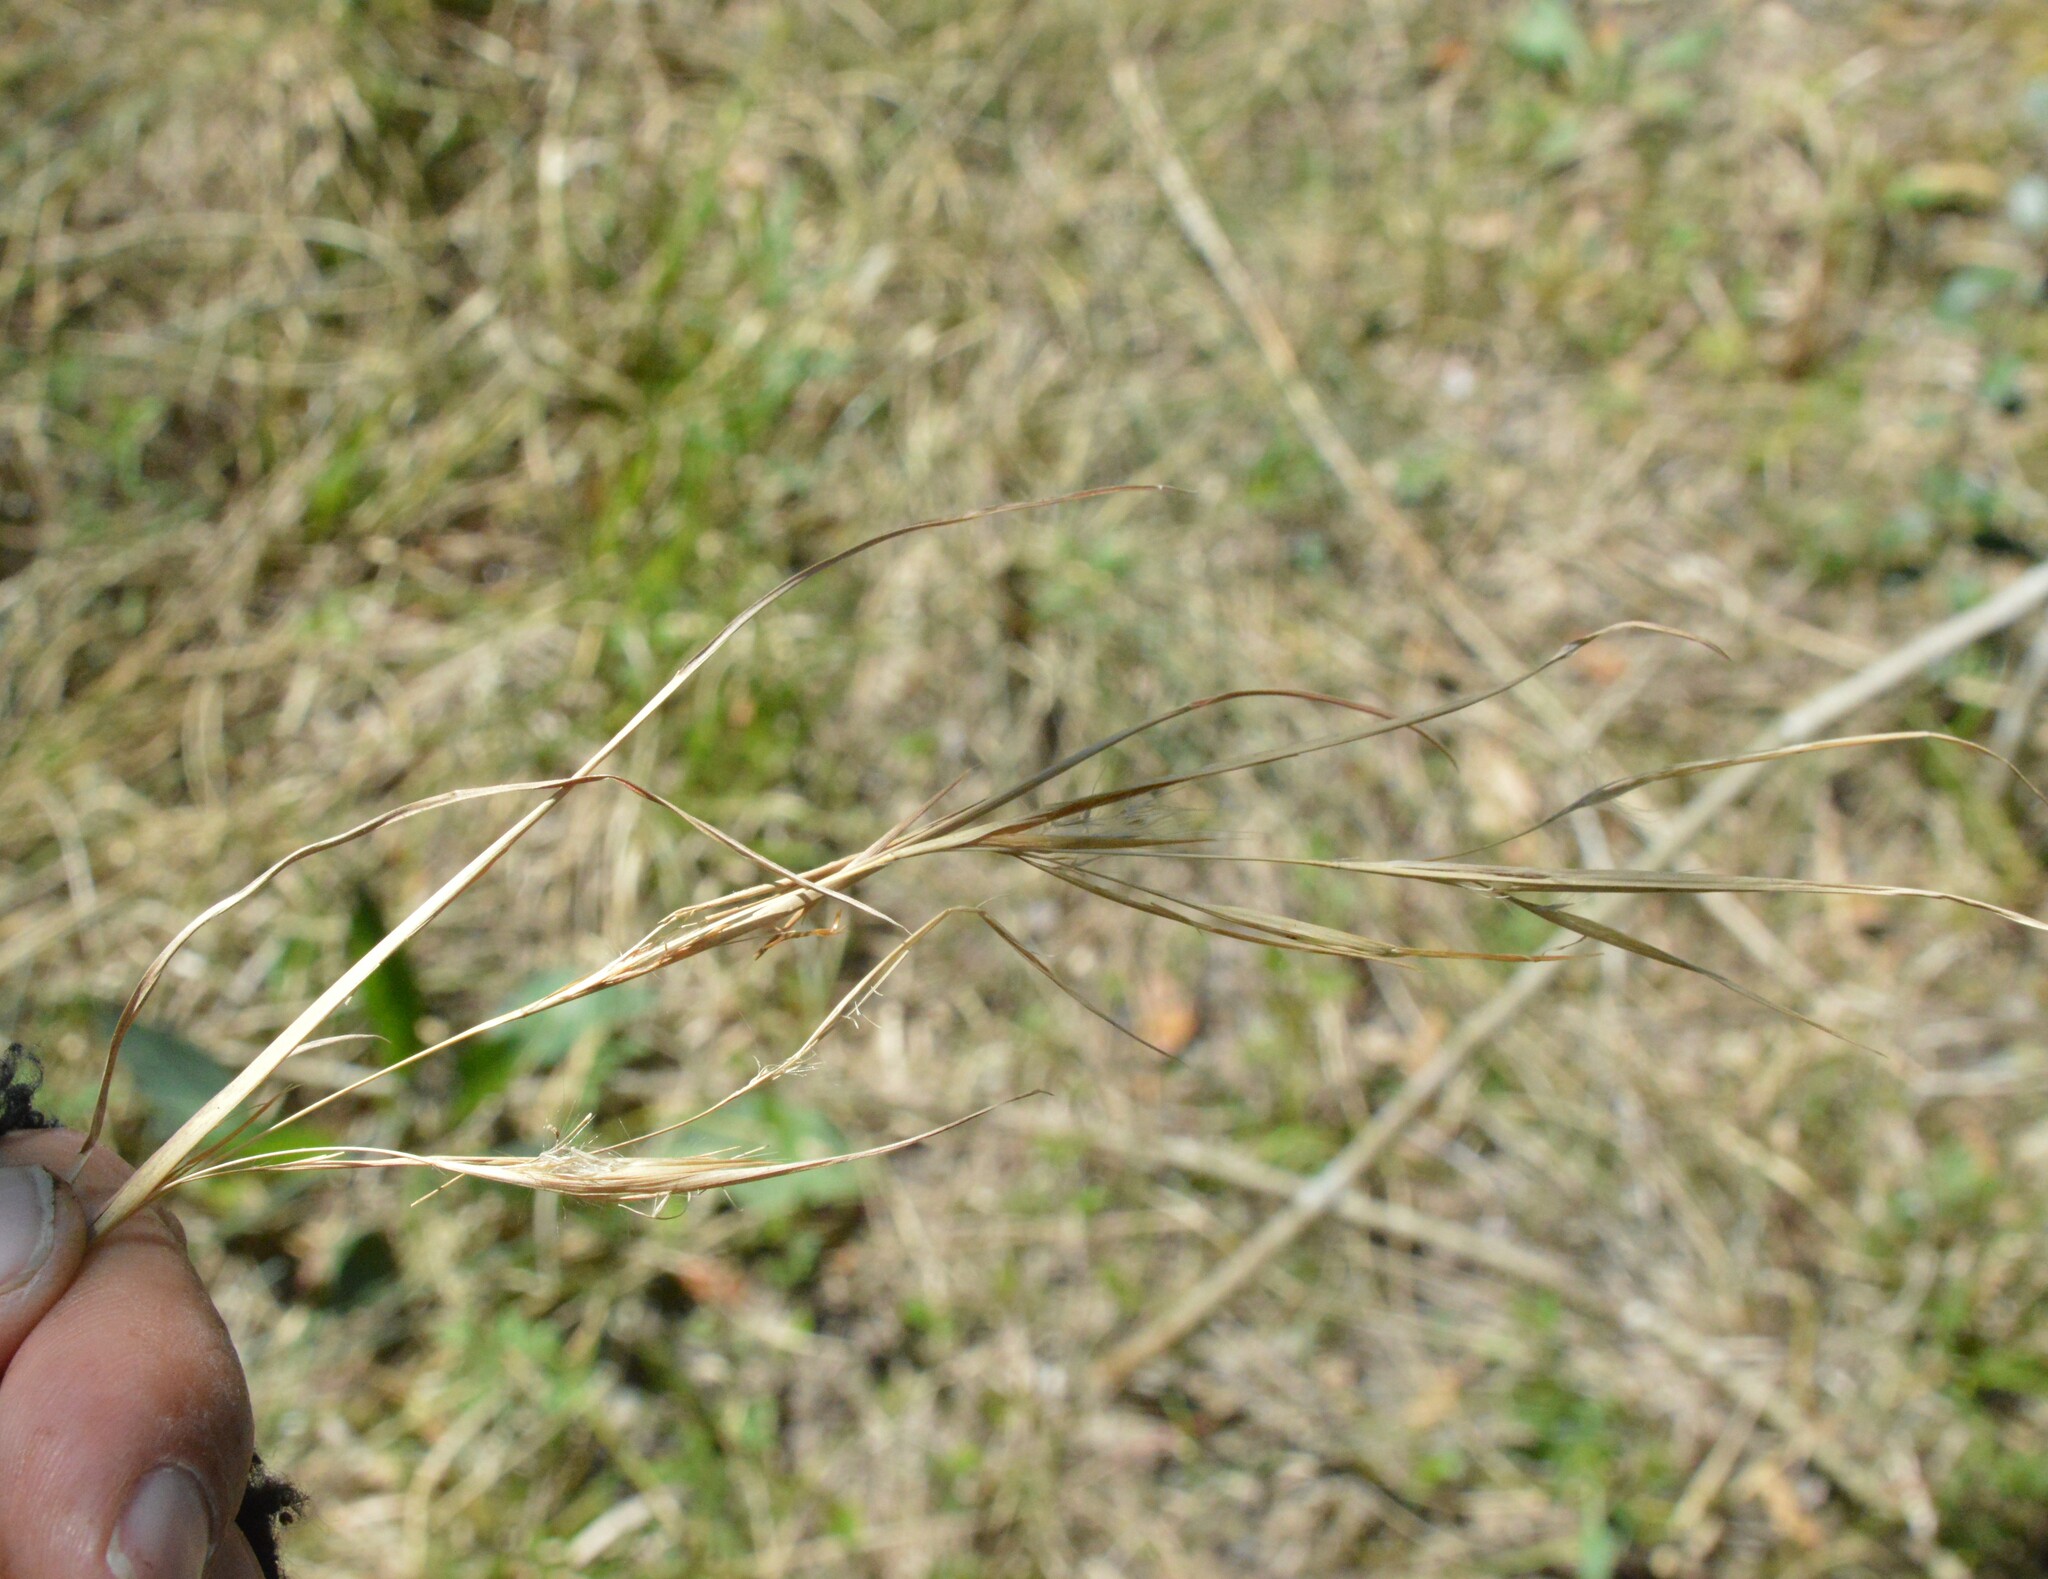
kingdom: Plantae
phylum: Tracheophyta
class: Liliopsida
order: Poales
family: Poaceae
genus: Andropogon
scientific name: Andropogon virginicus
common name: Broomsedge bluestem
